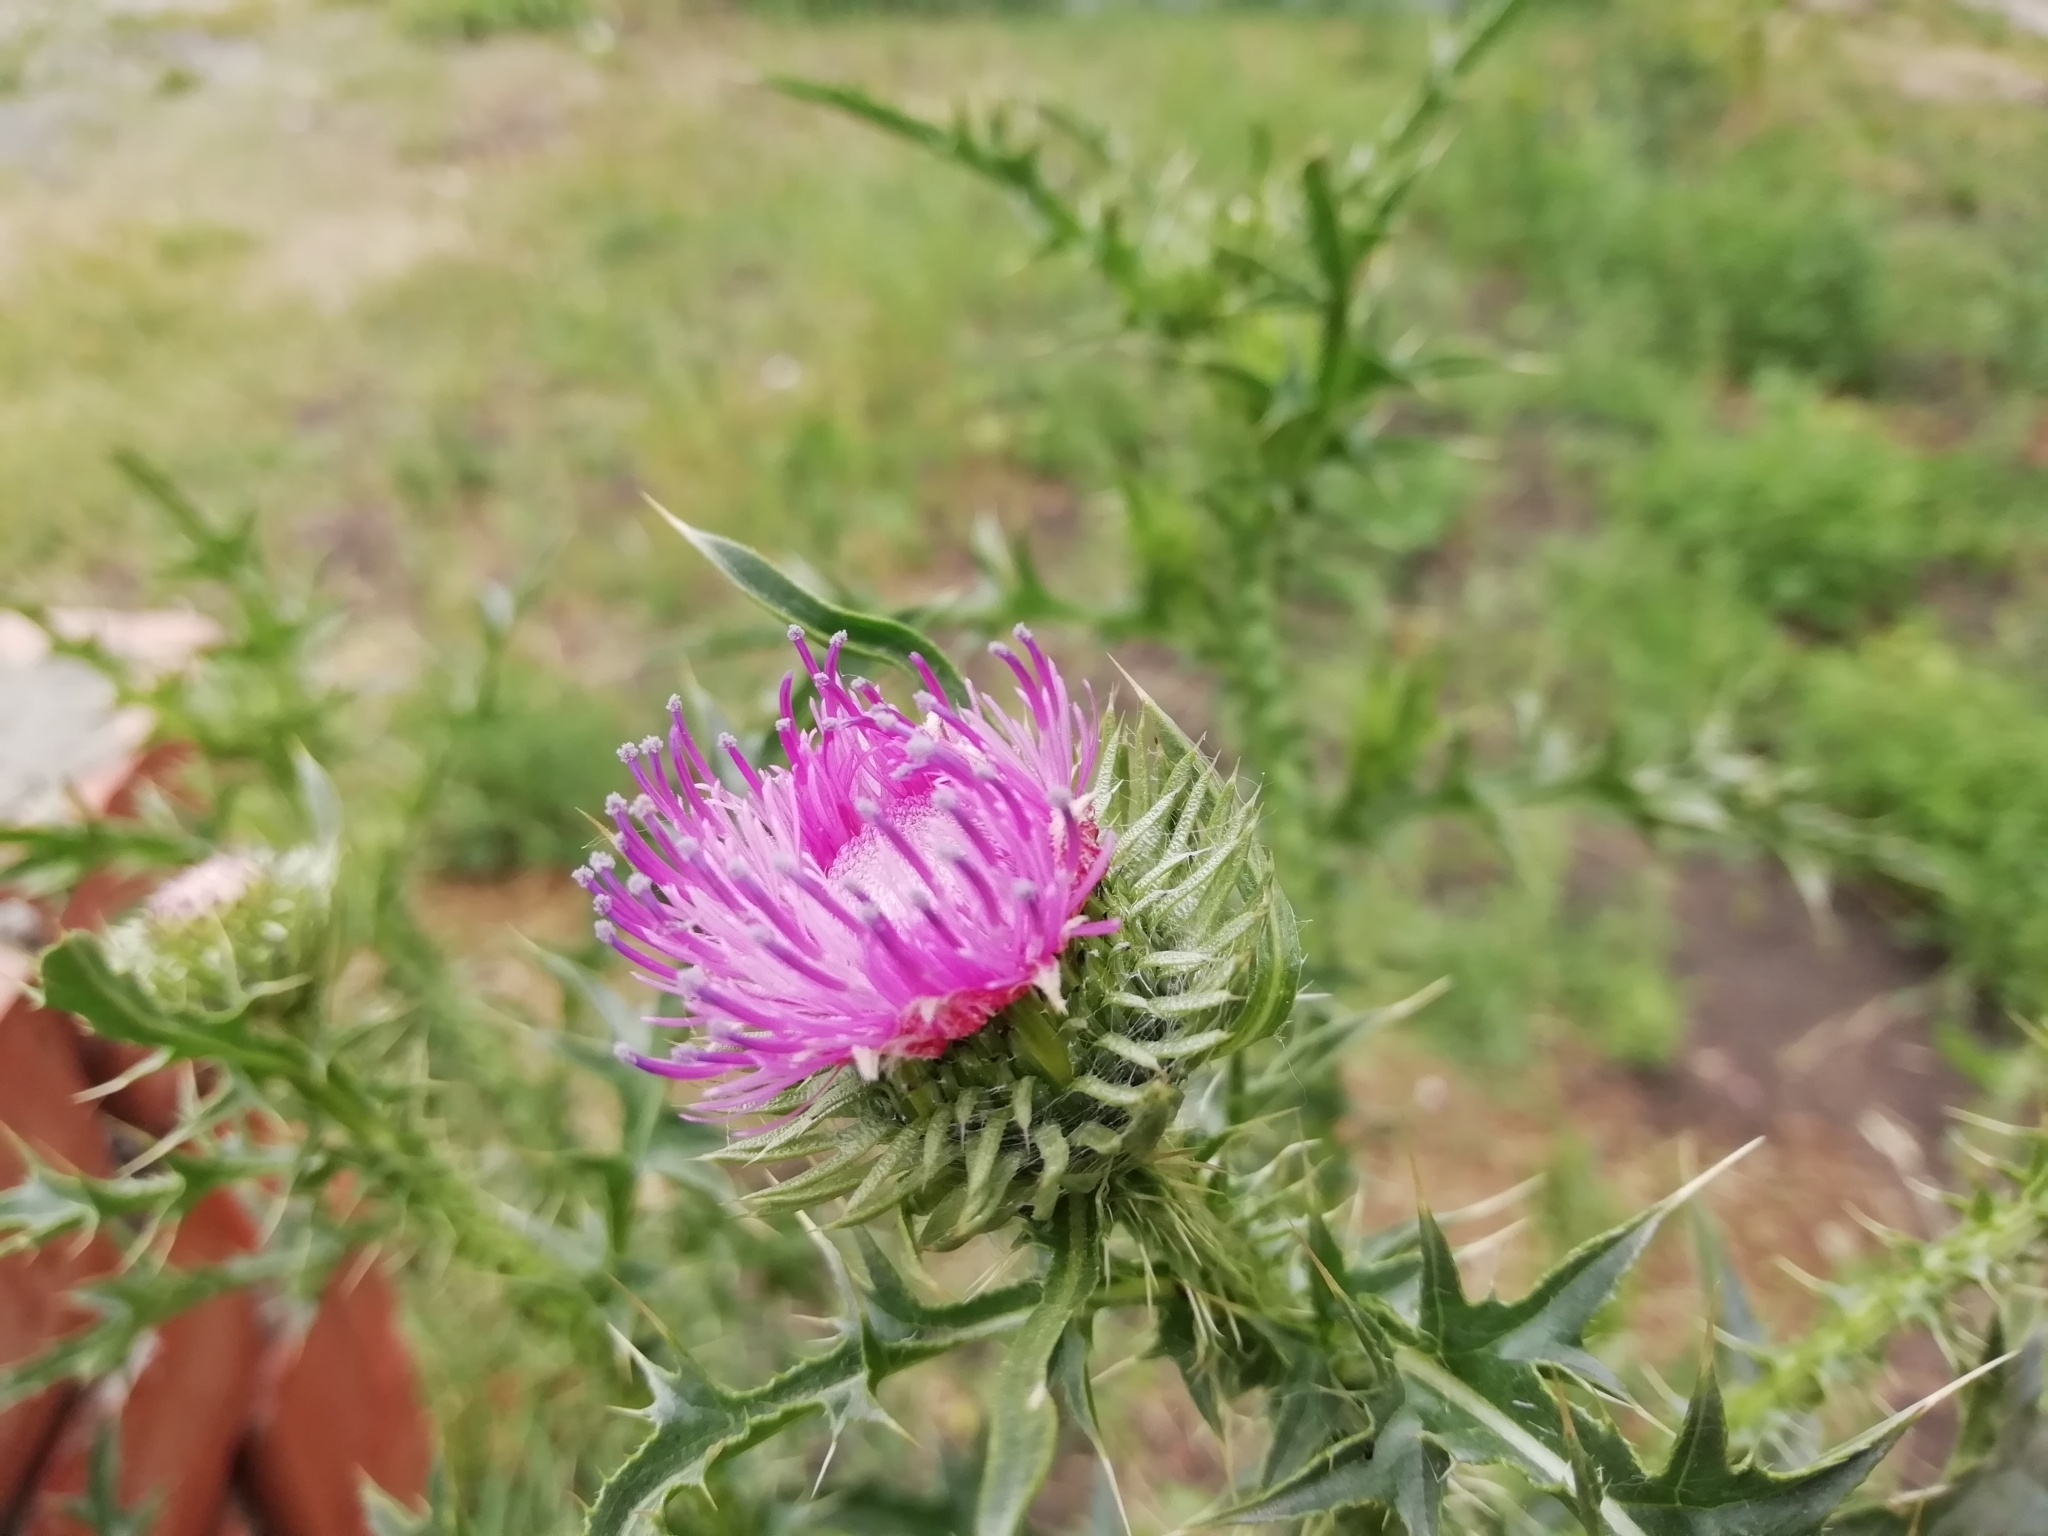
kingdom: Plantae
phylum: Tracheophyta
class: Magnoliopsida
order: Asterales
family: Asteraceae
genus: Carduus
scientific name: Carduus acanthoides
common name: Plumeless thistle
